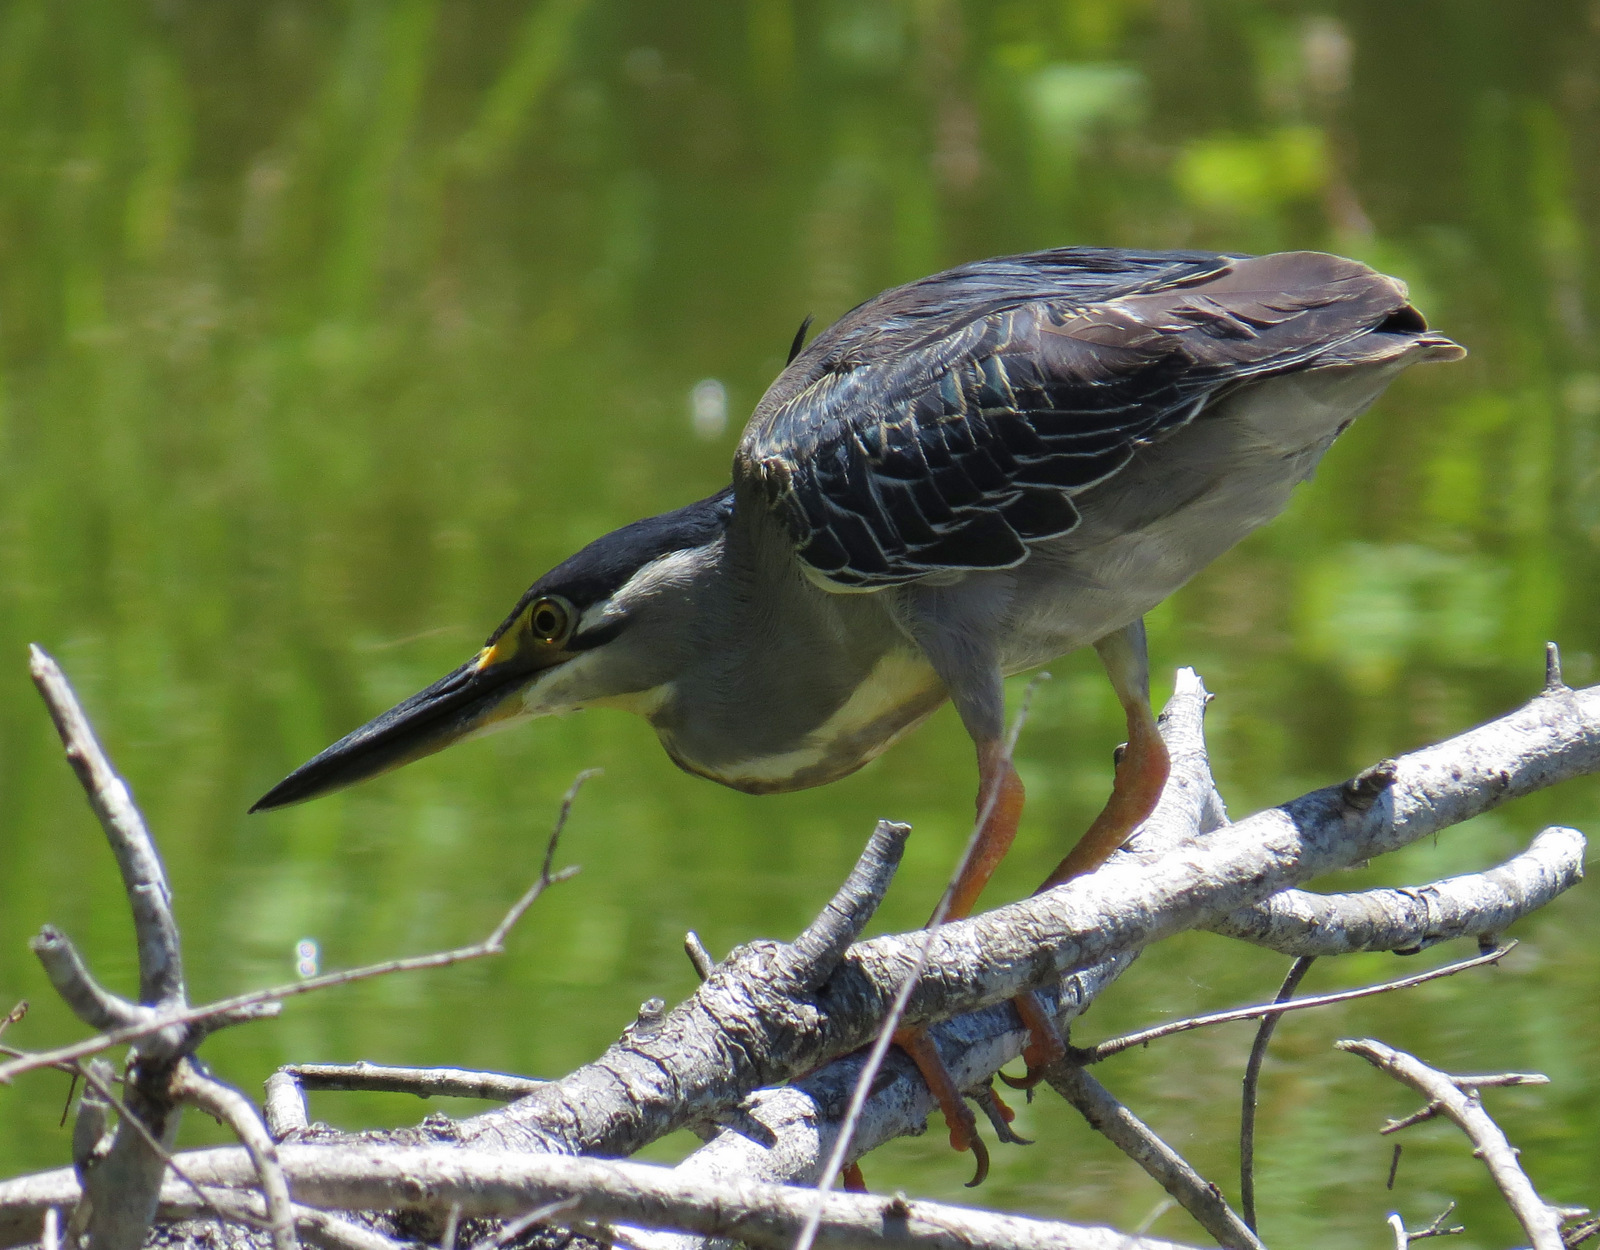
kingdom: Animalia
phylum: Chordata
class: Aves
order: Pelecaniformes
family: Ardeidae
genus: Butorides
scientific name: Butorides striata
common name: Striated heron
